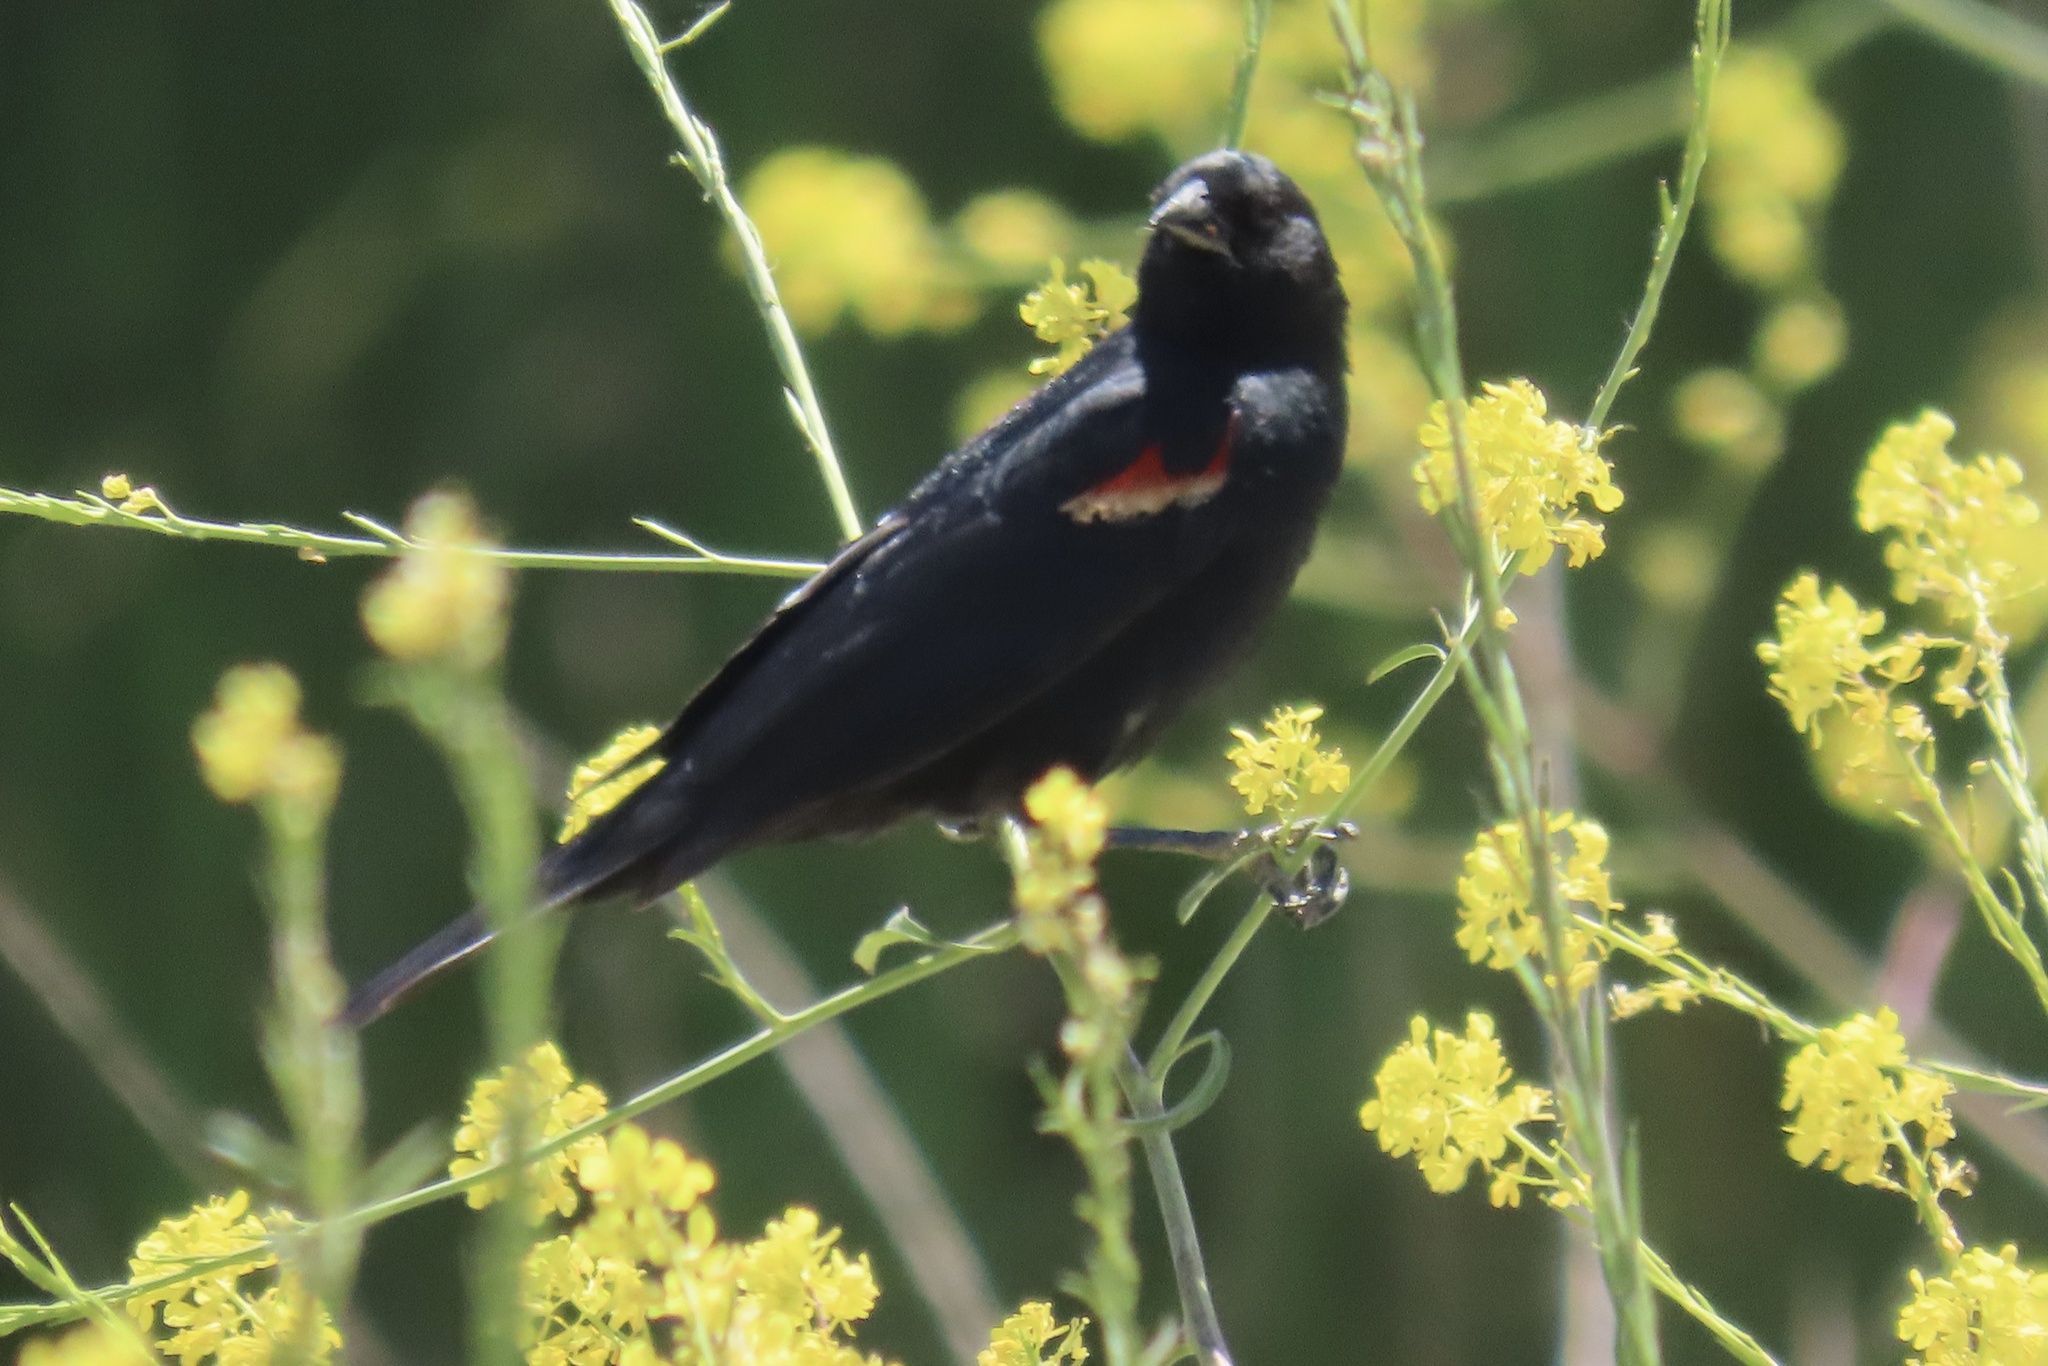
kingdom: Animalia
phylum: Chordata
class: Aves
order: Passeriformes
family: Icteridae
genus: Agelaius
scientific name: Agelaius phoeniceus
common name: Red-winged blackbird
